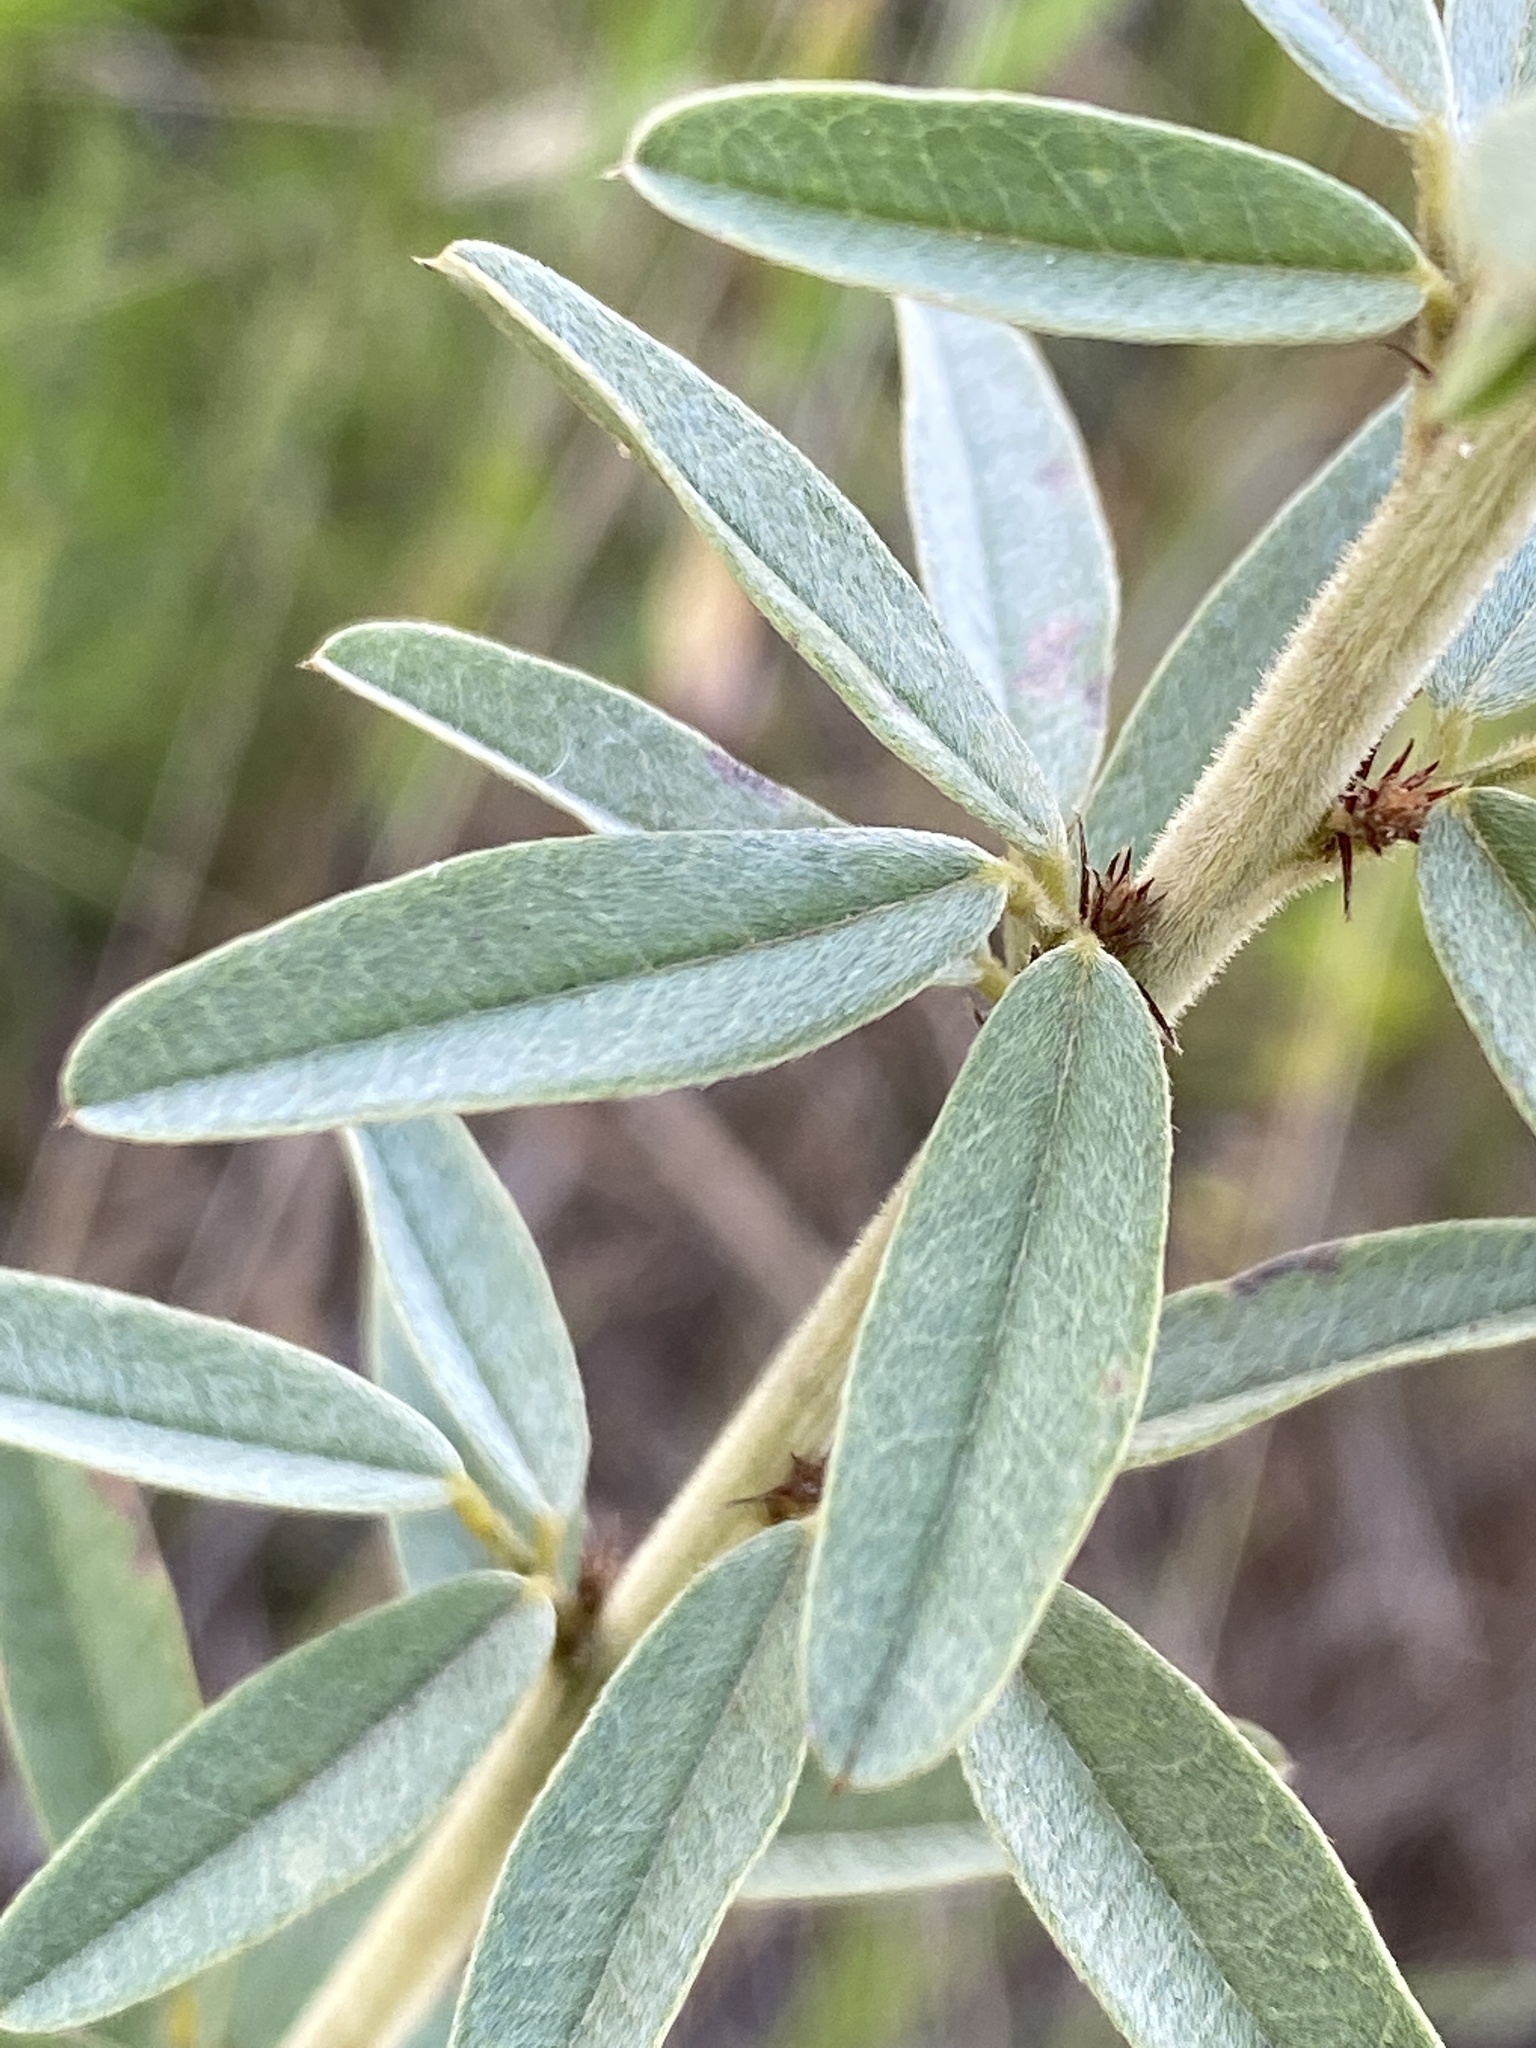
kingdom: Plantae
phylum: Tracheophyta
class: Magnoliopsida
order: Fabales
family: Fabaceae
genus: Lespedeza
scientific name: Lespedeza capitata
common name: Dusty clover
